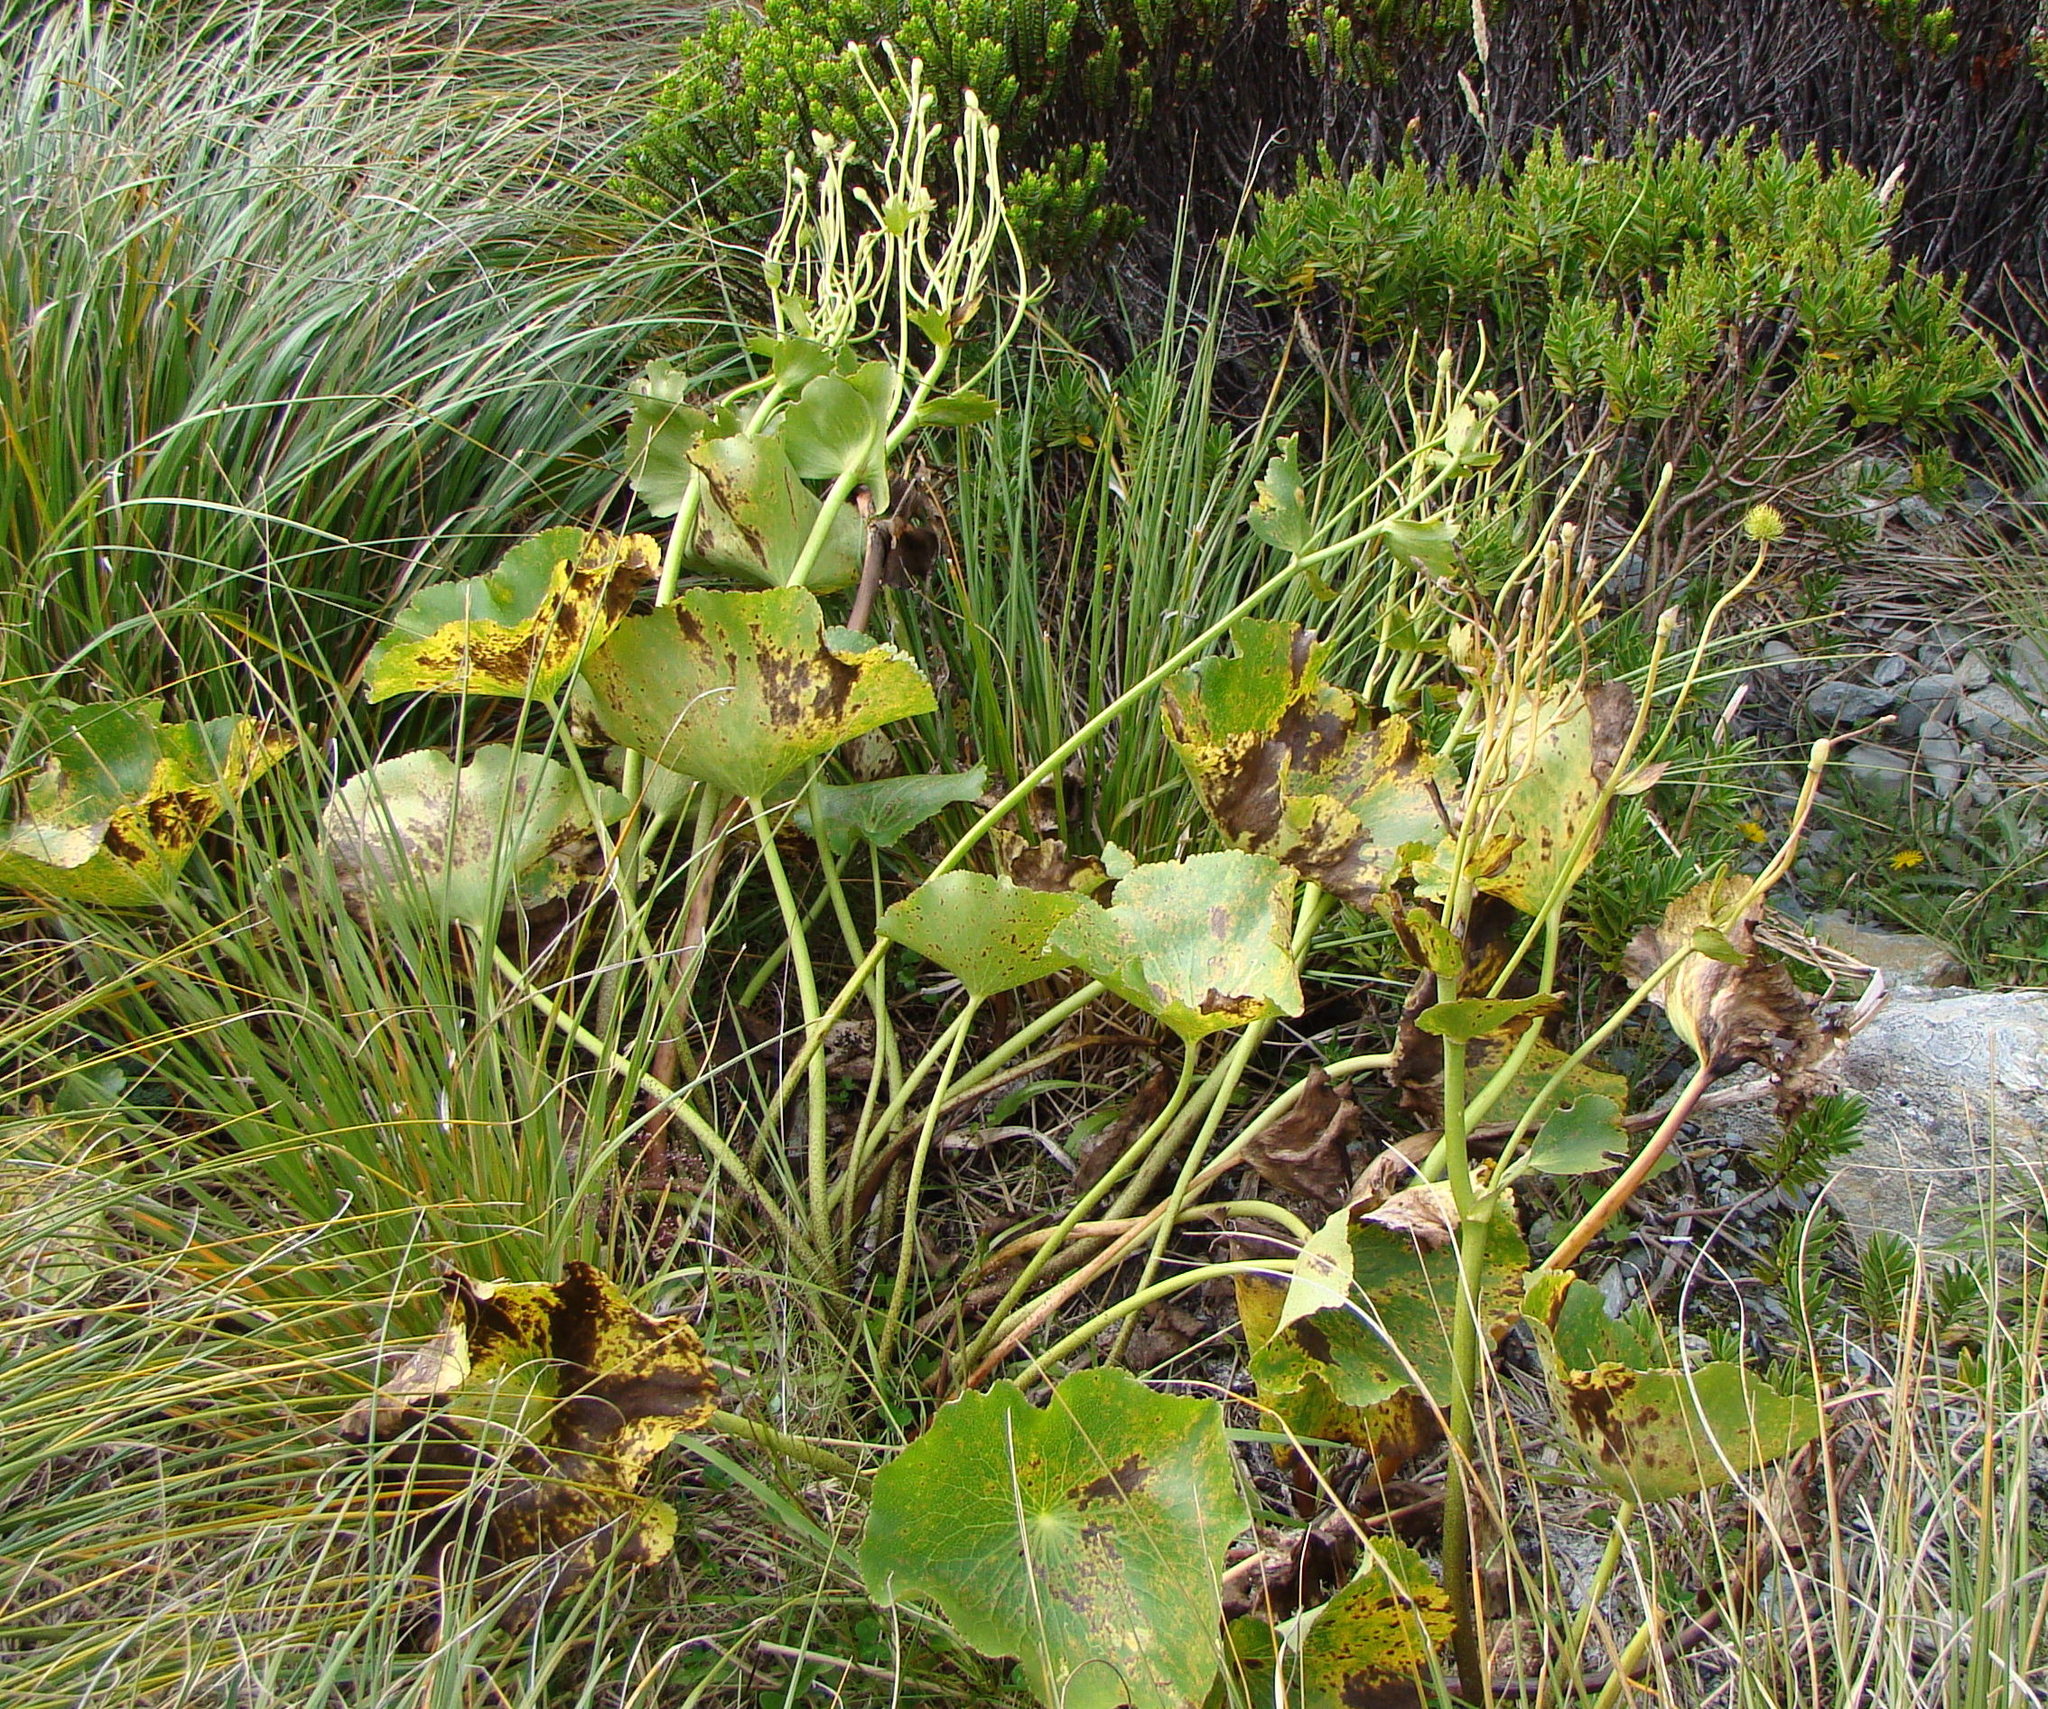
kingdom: Plantae
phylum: Tracheophyta
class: Magnoliopsida
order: Ranunculales
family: Ranunculaceae
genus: Ranunculus
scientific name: Ranunculus lyallii
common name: Mountain-lily
